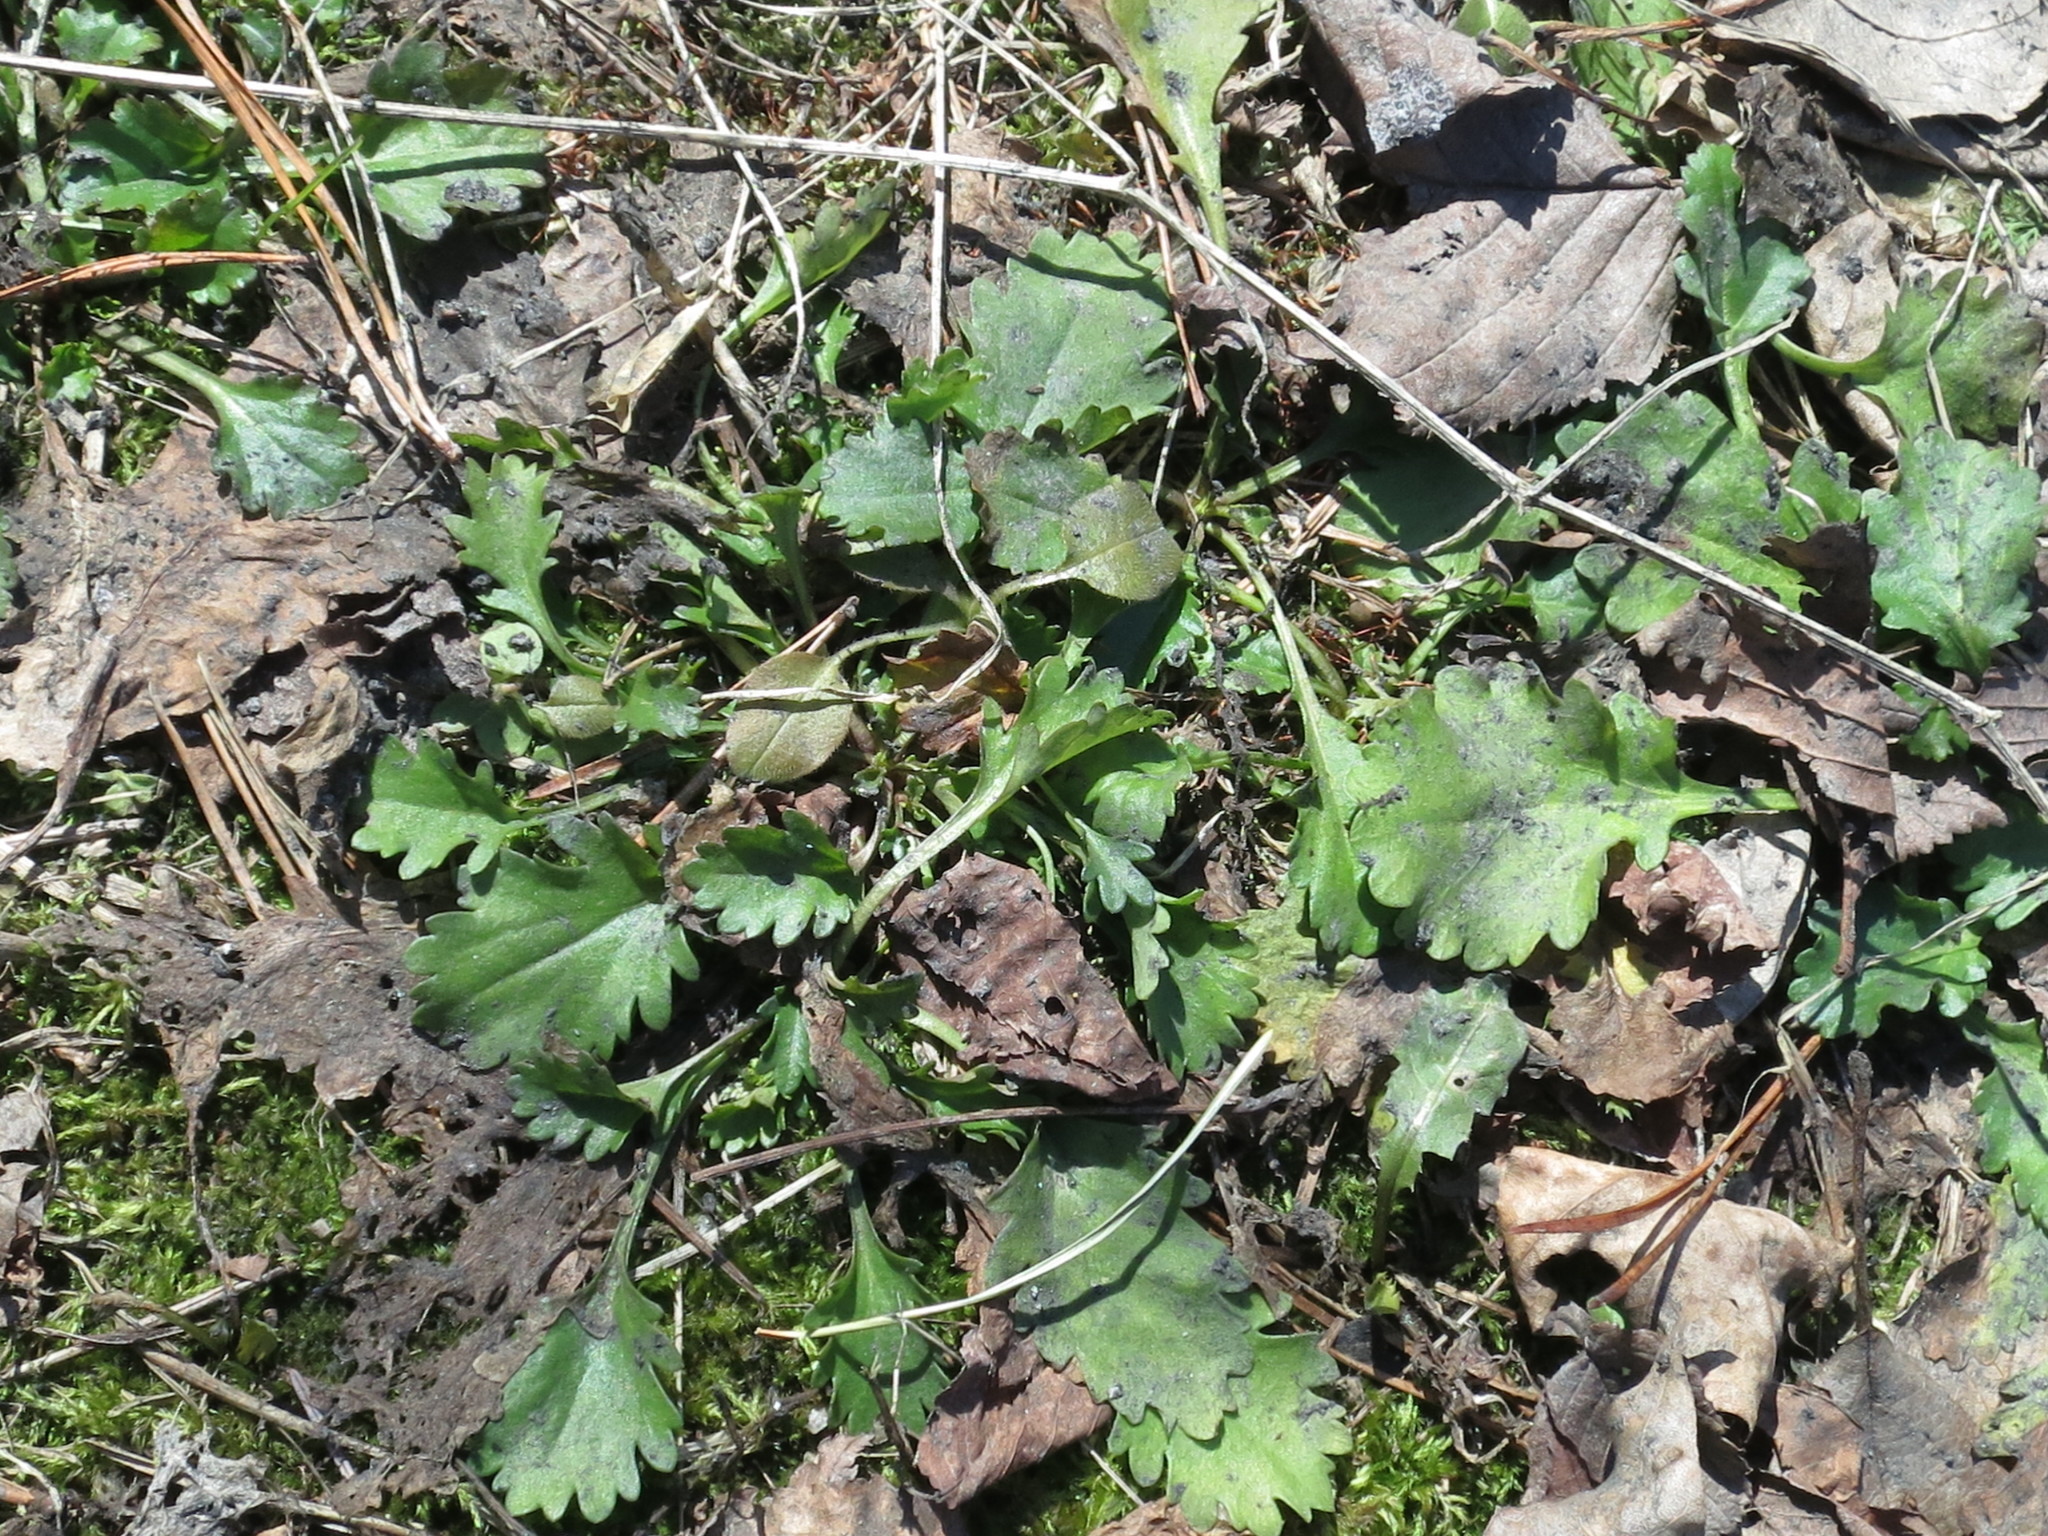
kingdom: Plantae
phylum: Tracheophyta
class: Magnoliopsida
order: Asterales
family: Asteraceae
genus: Leucanthemum
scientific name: Leucanthemum vulgare
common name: Oxeye daisy
